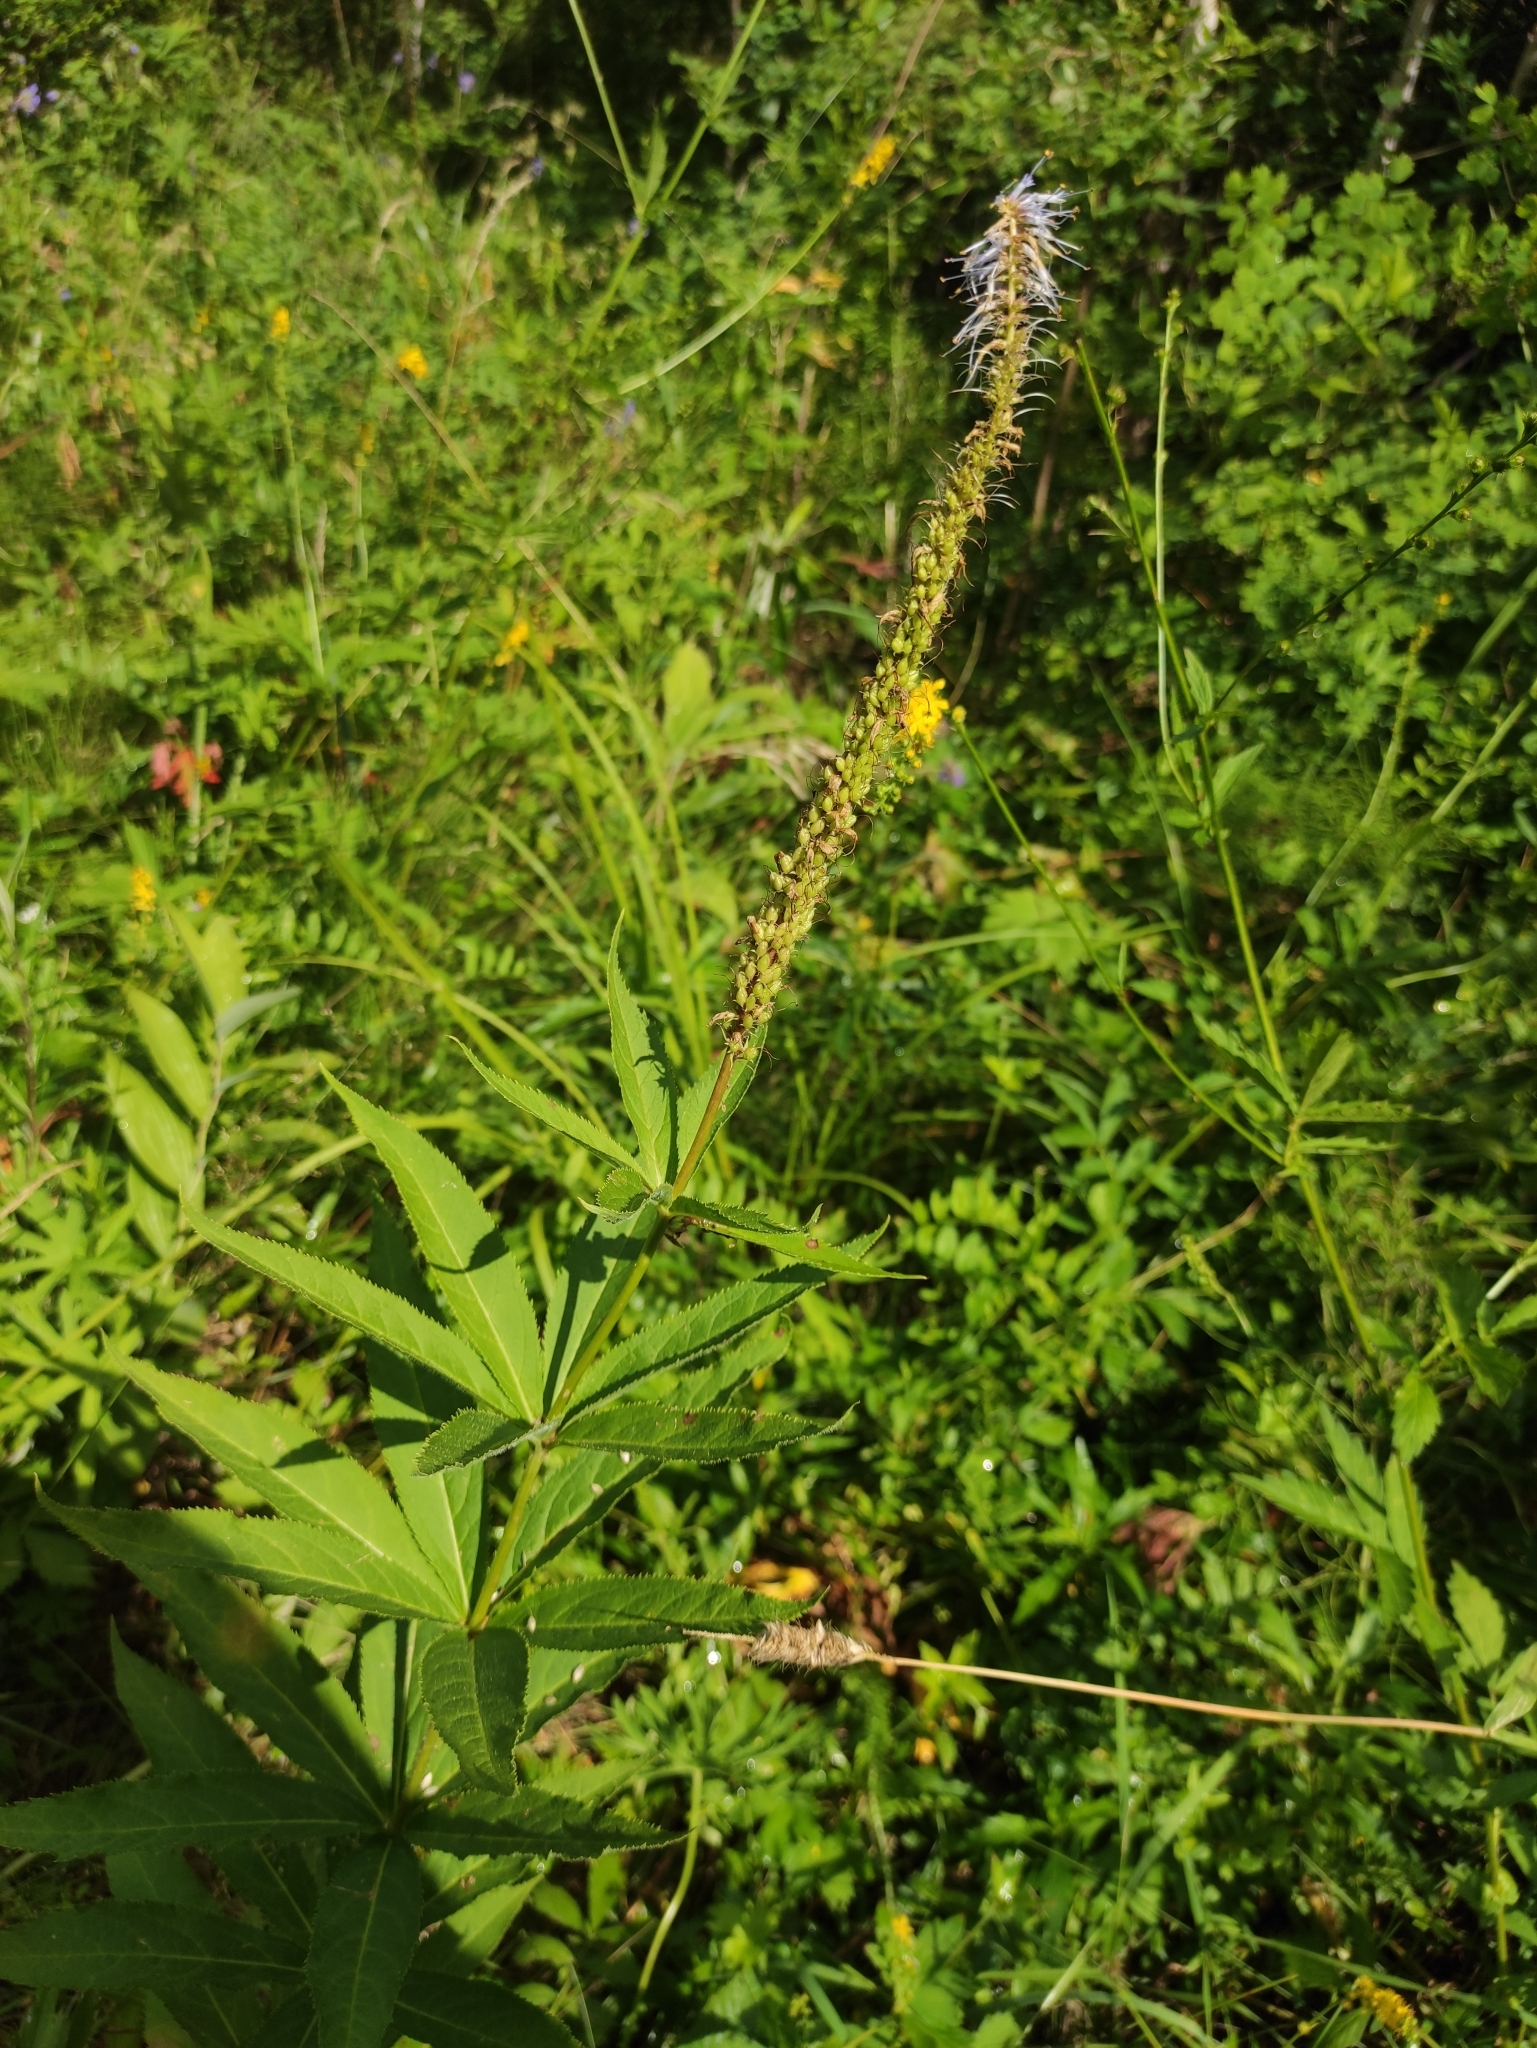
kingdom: Plantae
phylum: Tracheophyta
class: Magnoliopsida
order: Lamiales
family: Plantaginaceae
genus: Veronicastrum
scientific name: Veronicastrum sibiricum
